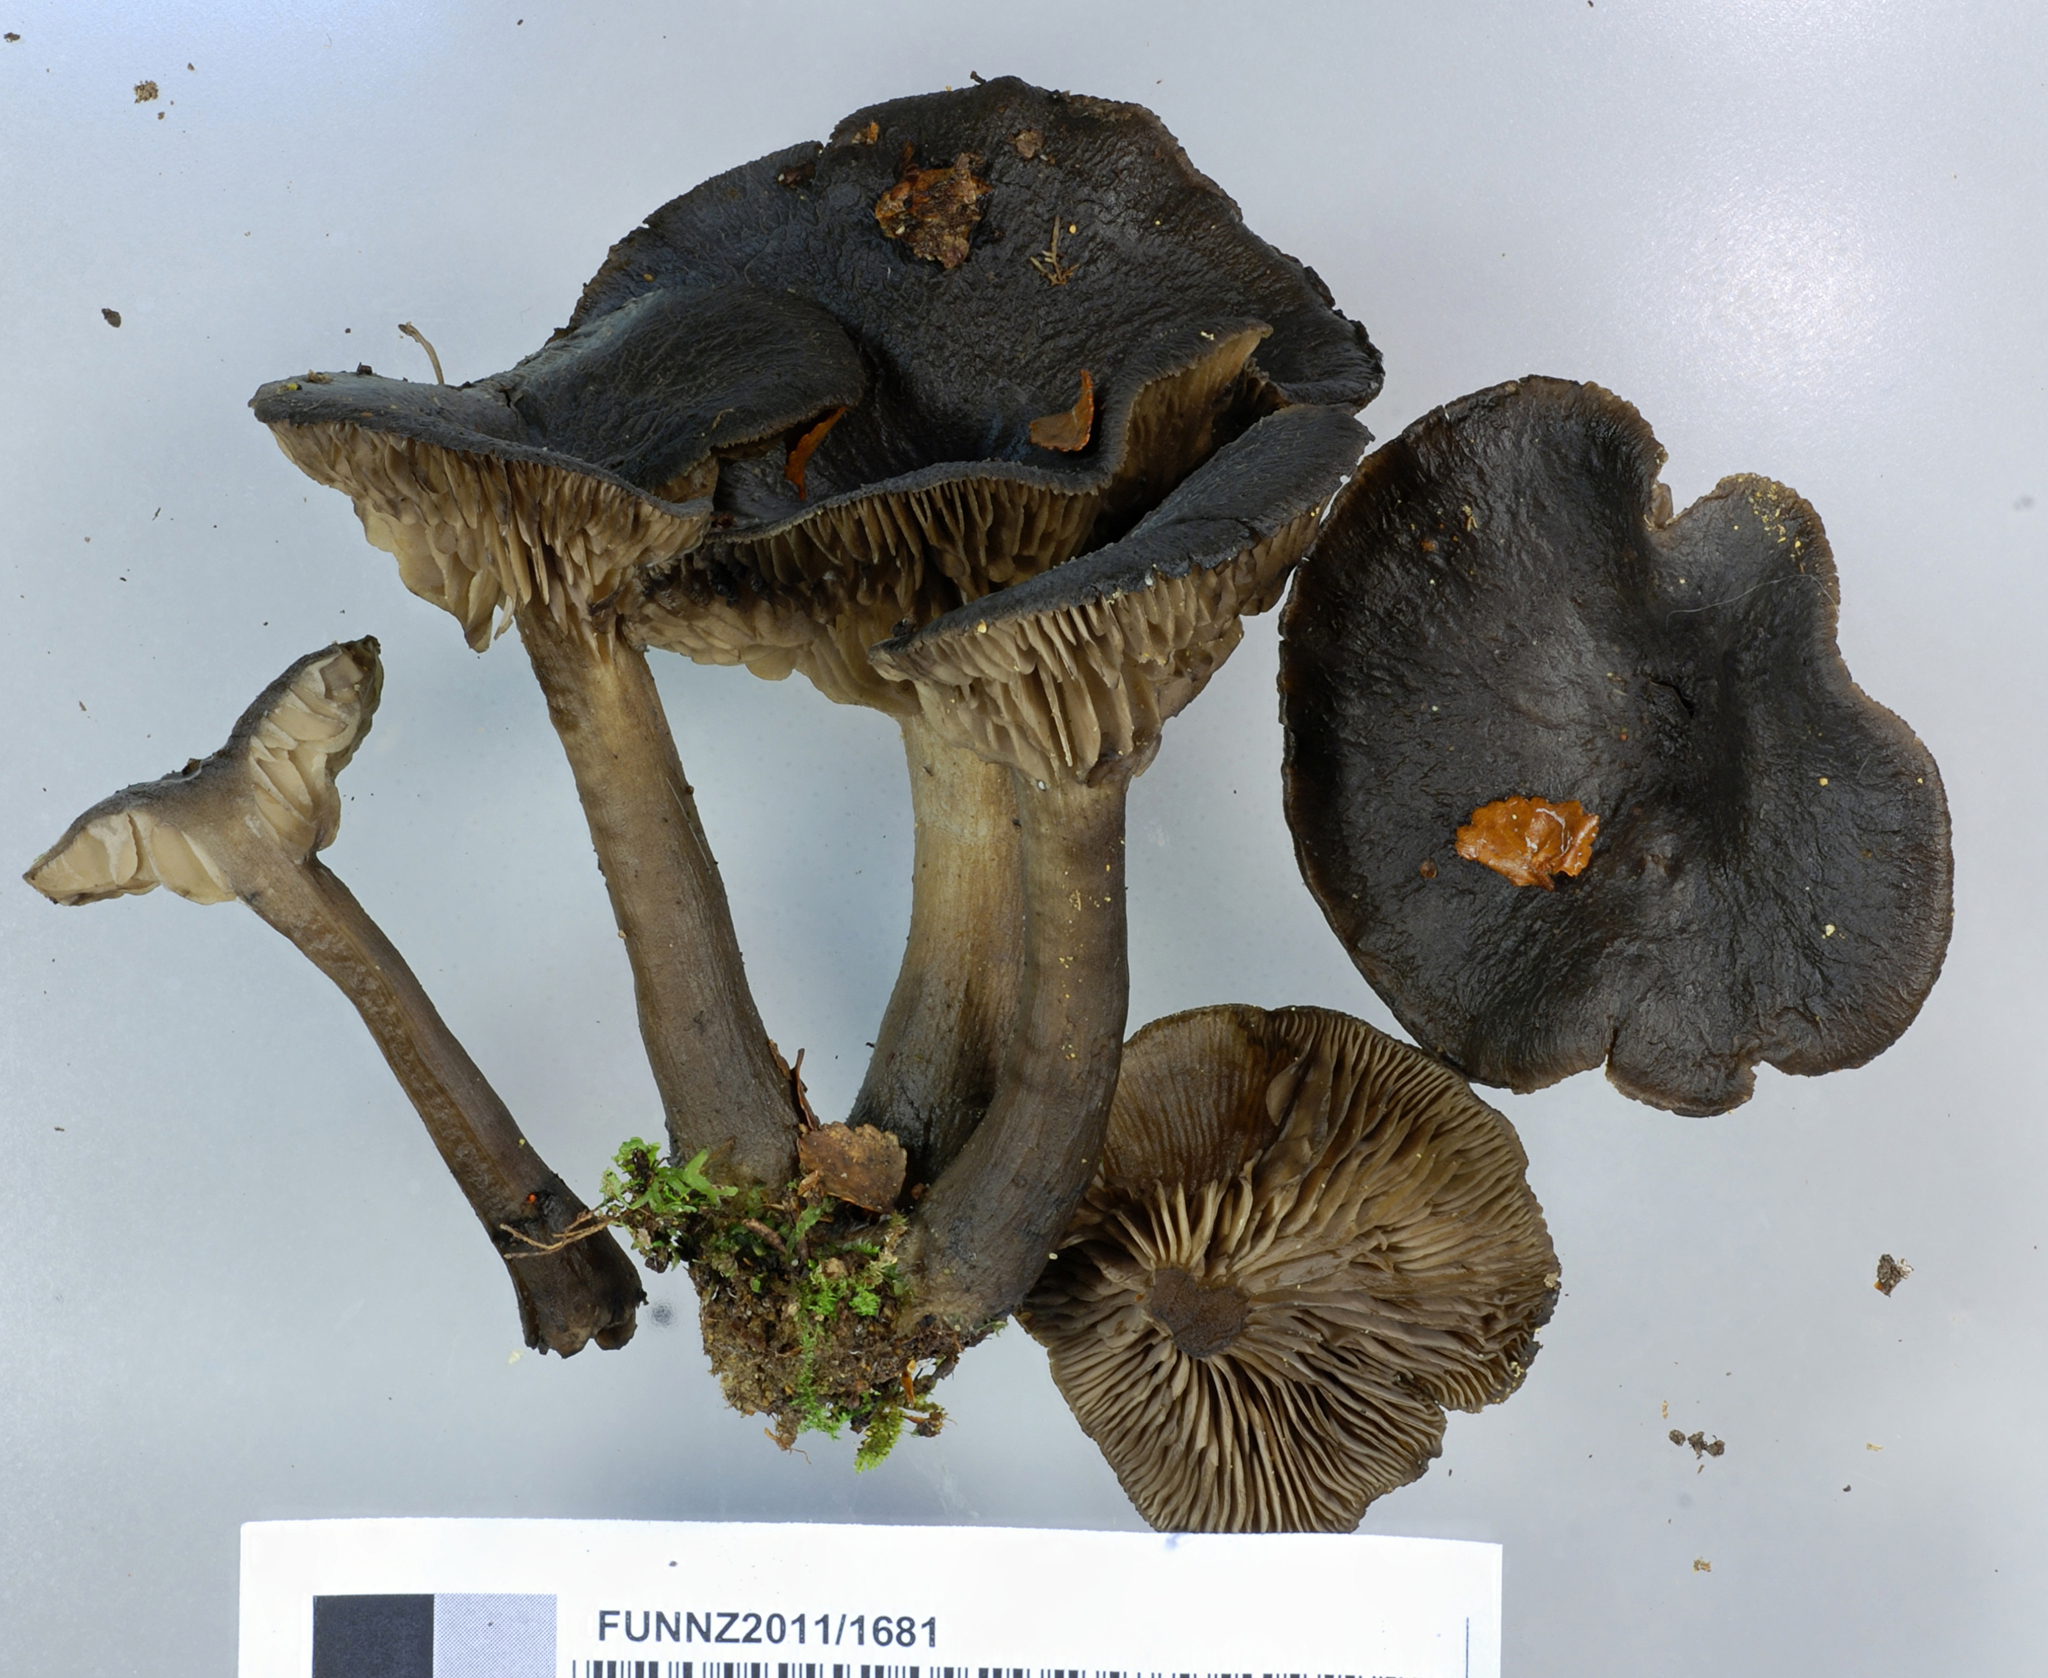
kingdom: Fungi
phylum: Basidiomycota
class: Agaricomycetes
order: Agaricales
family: Lyophyllaceae
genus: Lyophyllum
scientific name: Lyophyllum moncalvoanum
